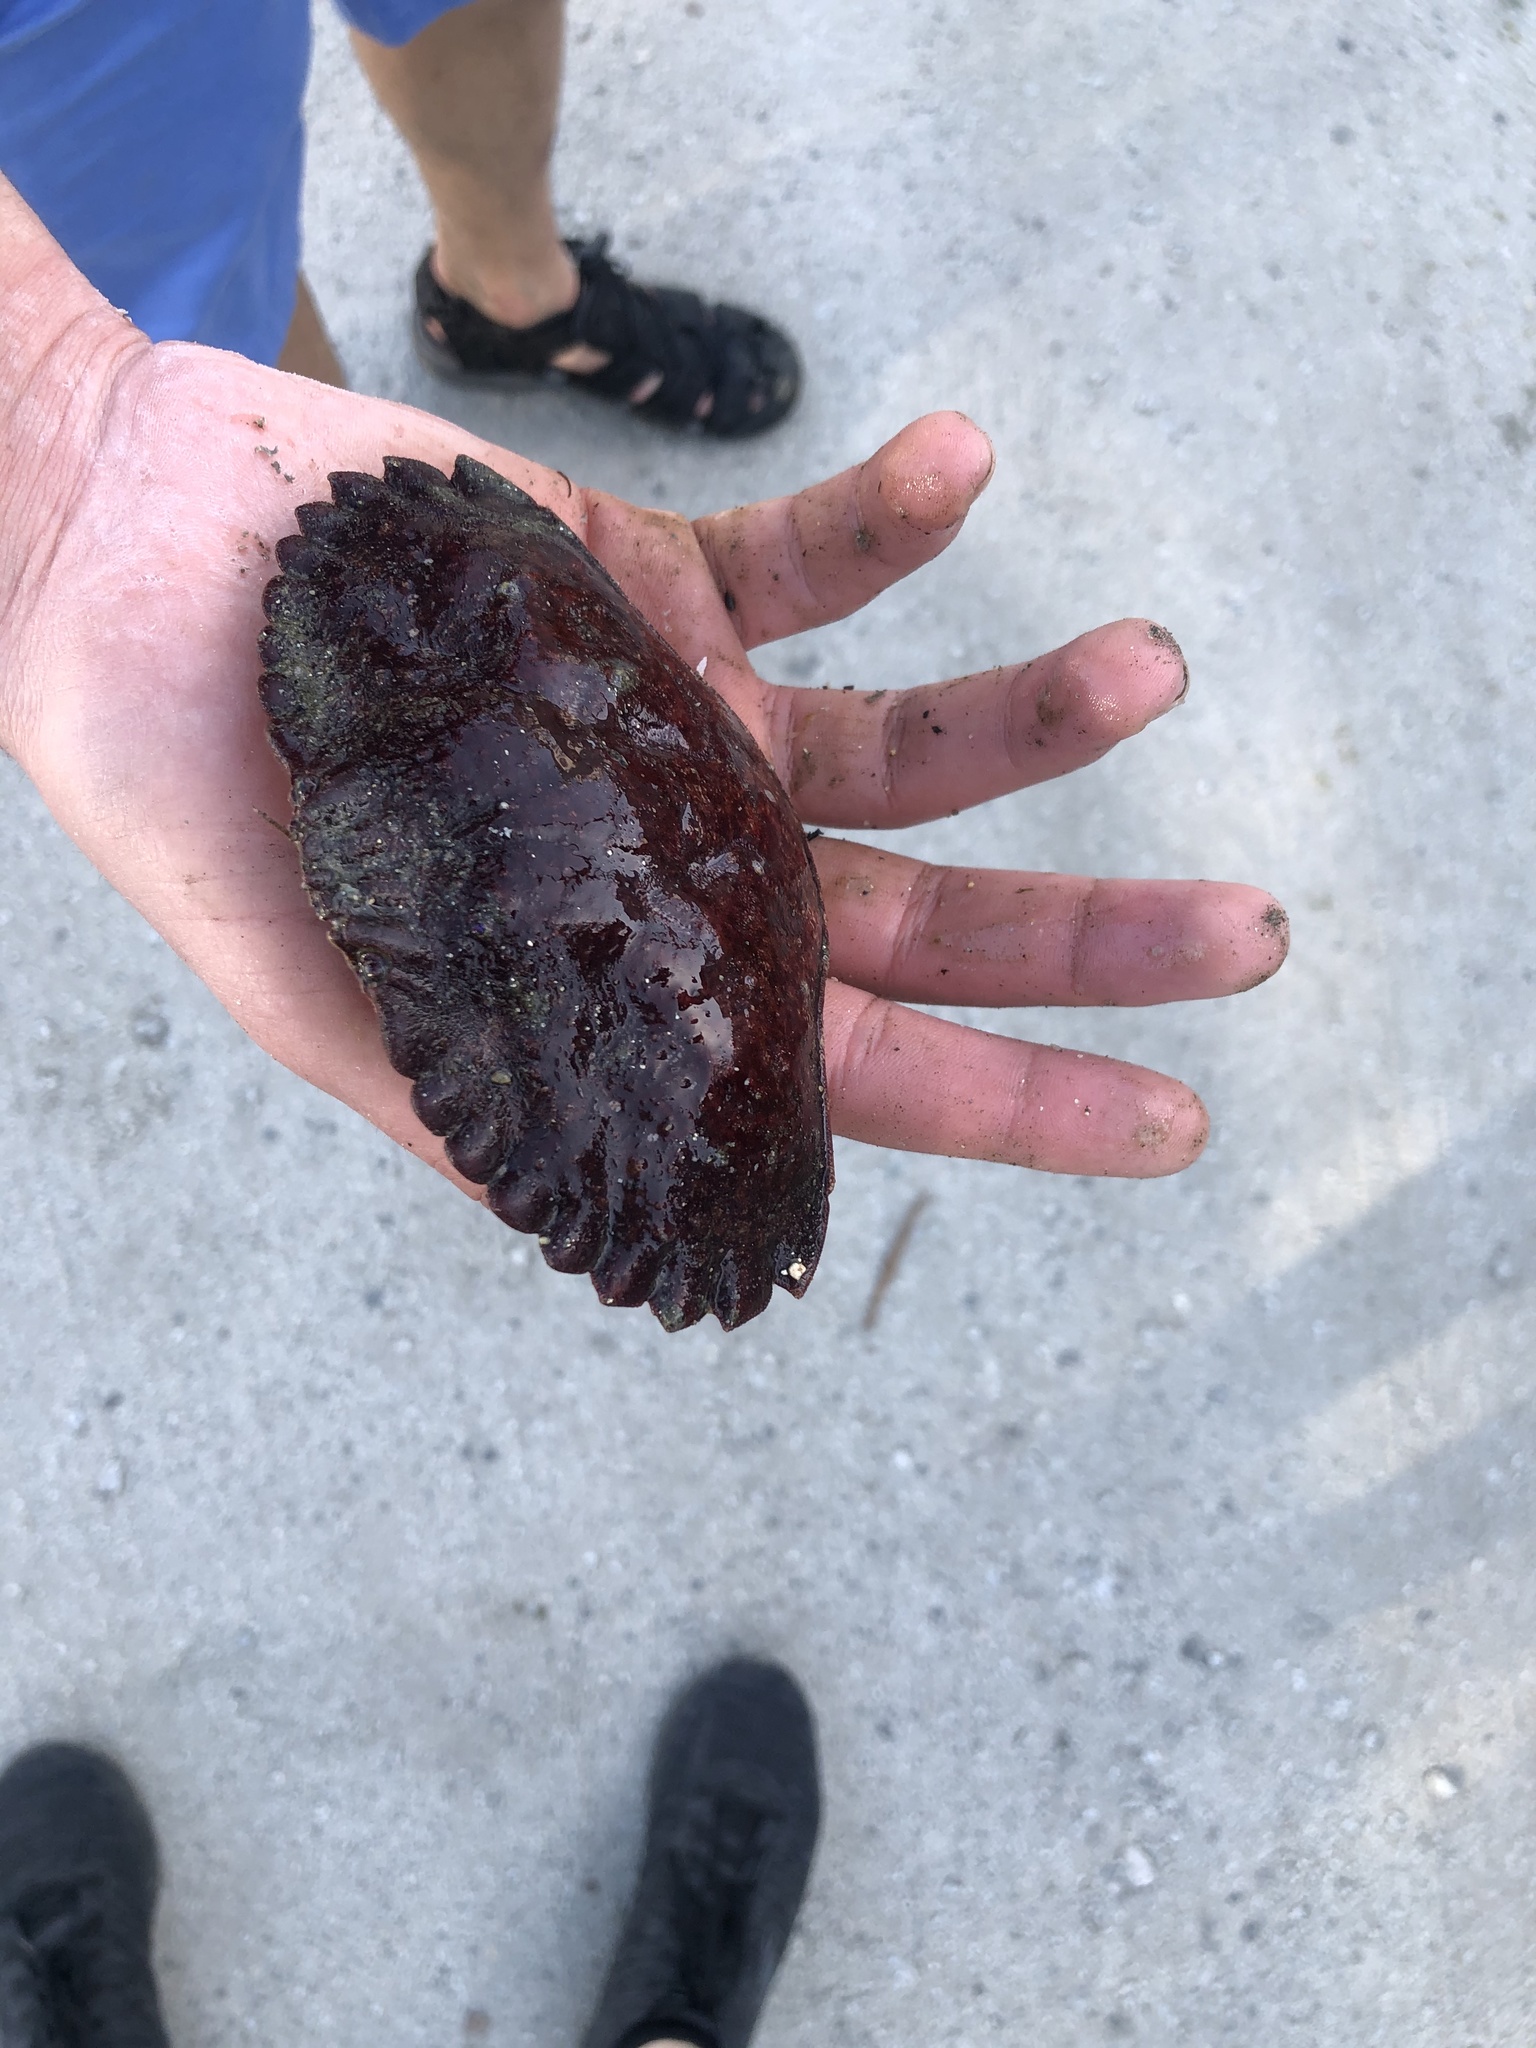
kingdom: Animalia
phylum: Arthropoda
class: Malacostraca
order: Decapoda
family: Cancridae
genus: Cancer
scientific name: Cancer productus
